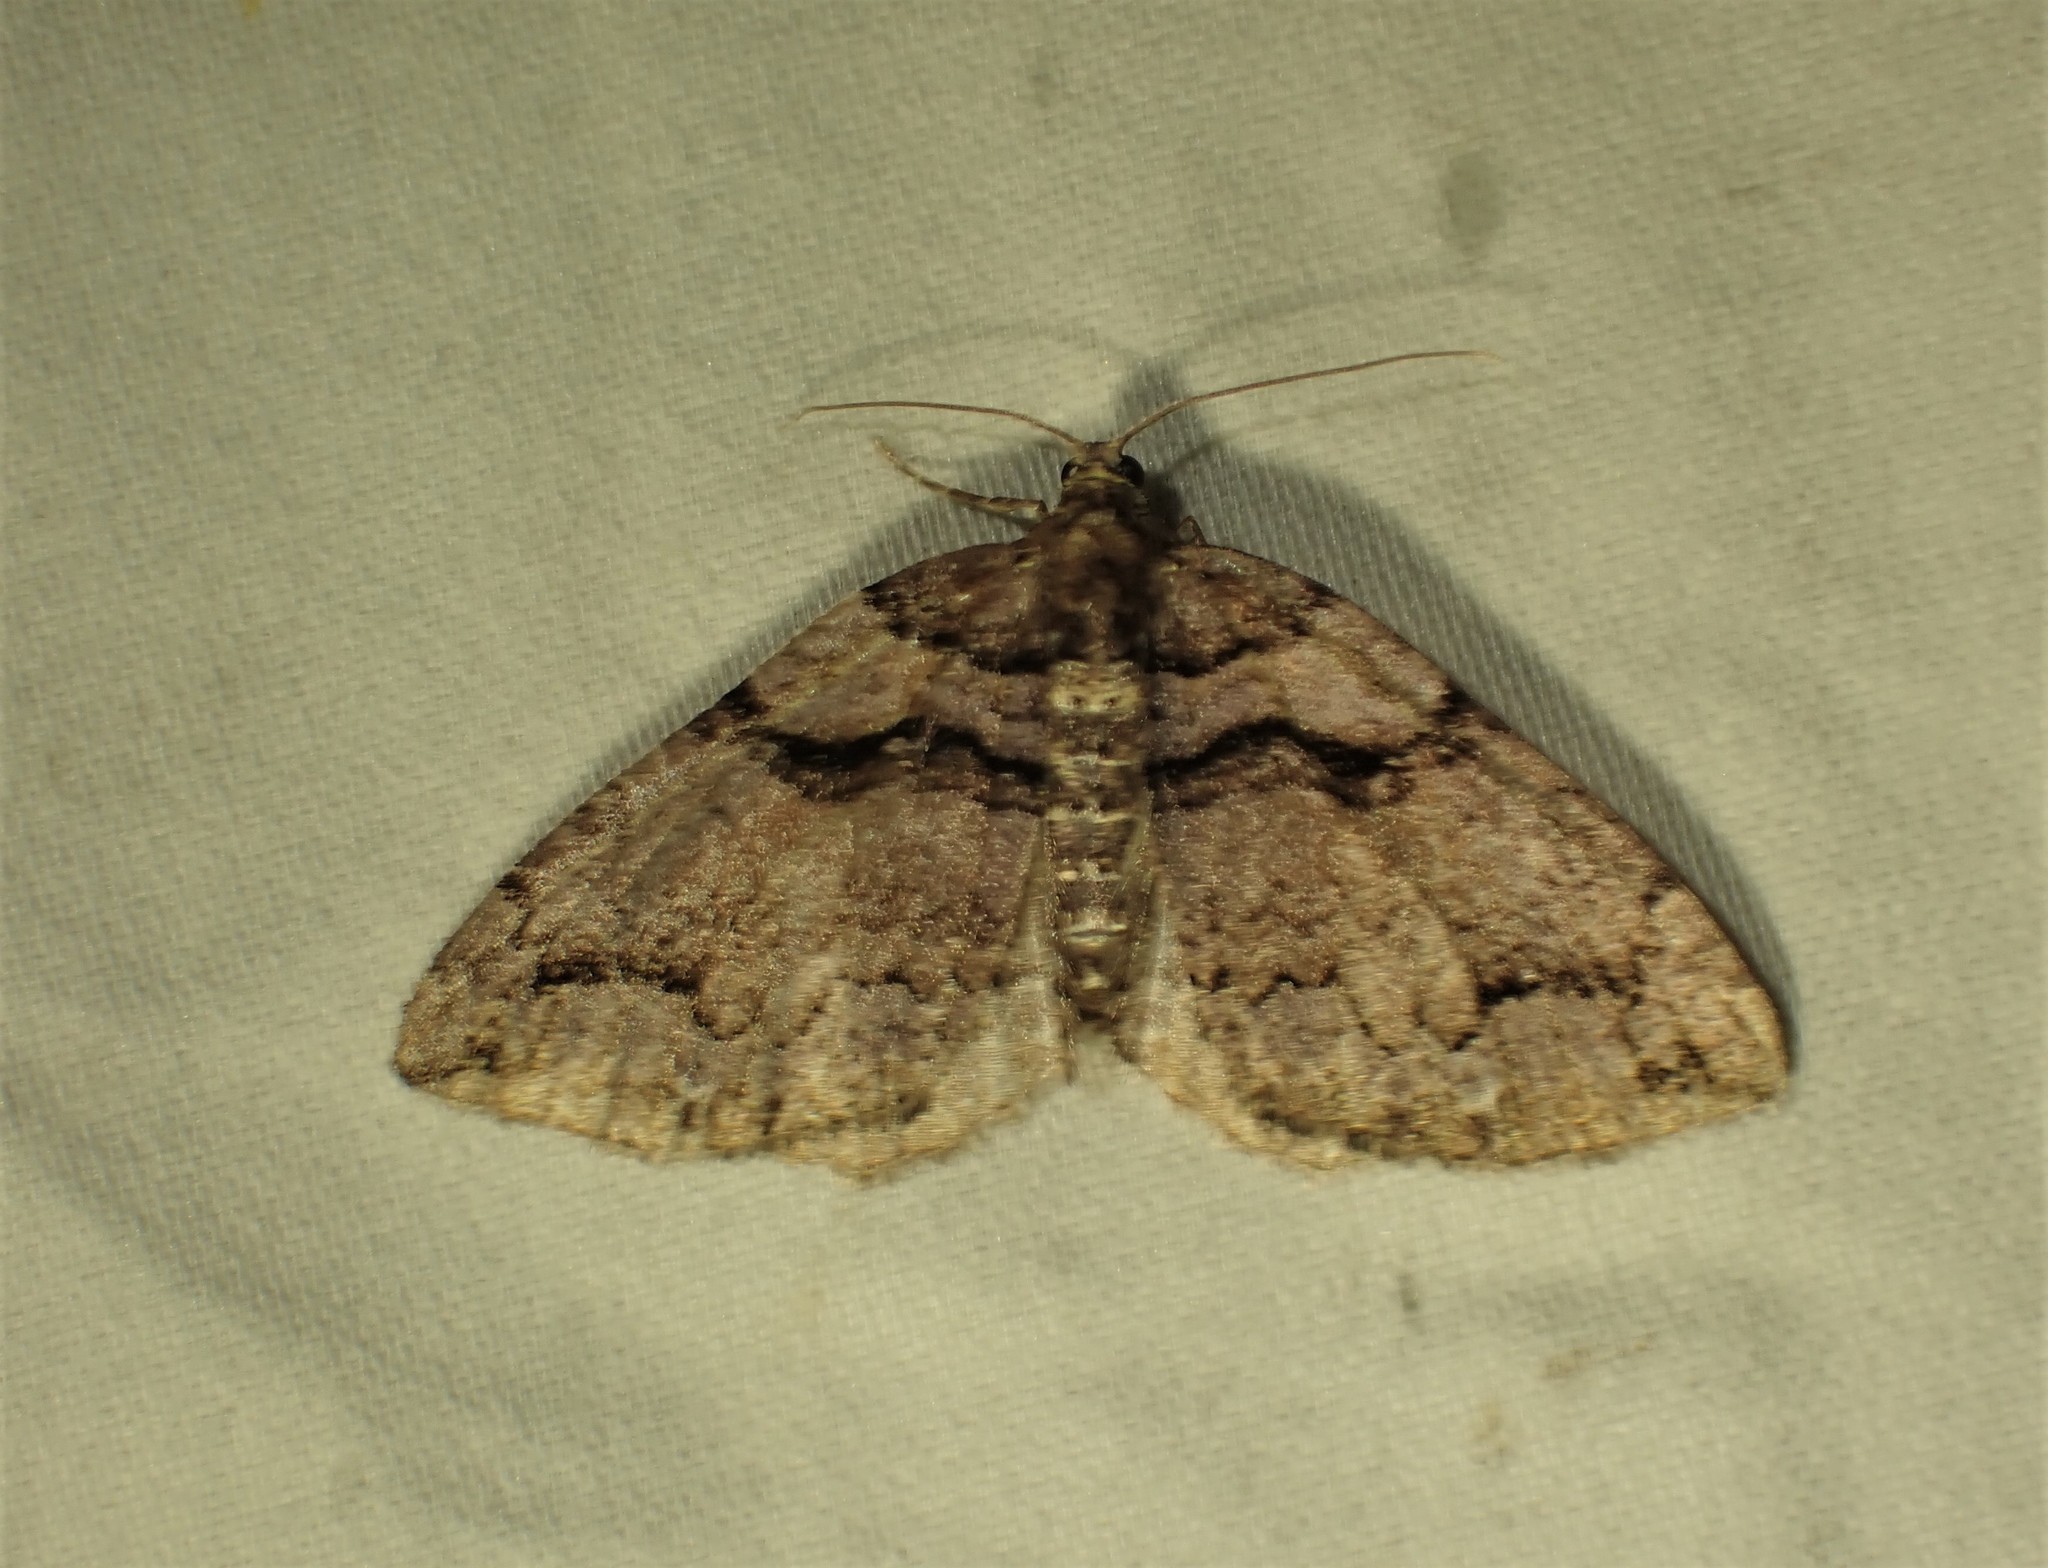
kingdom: Animalia
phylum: Arthropoda
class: Insecta
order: Lepidoptera
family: Geometridae
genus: Anticlea
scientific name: Anticlea vasiliata
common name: Variable carpet
